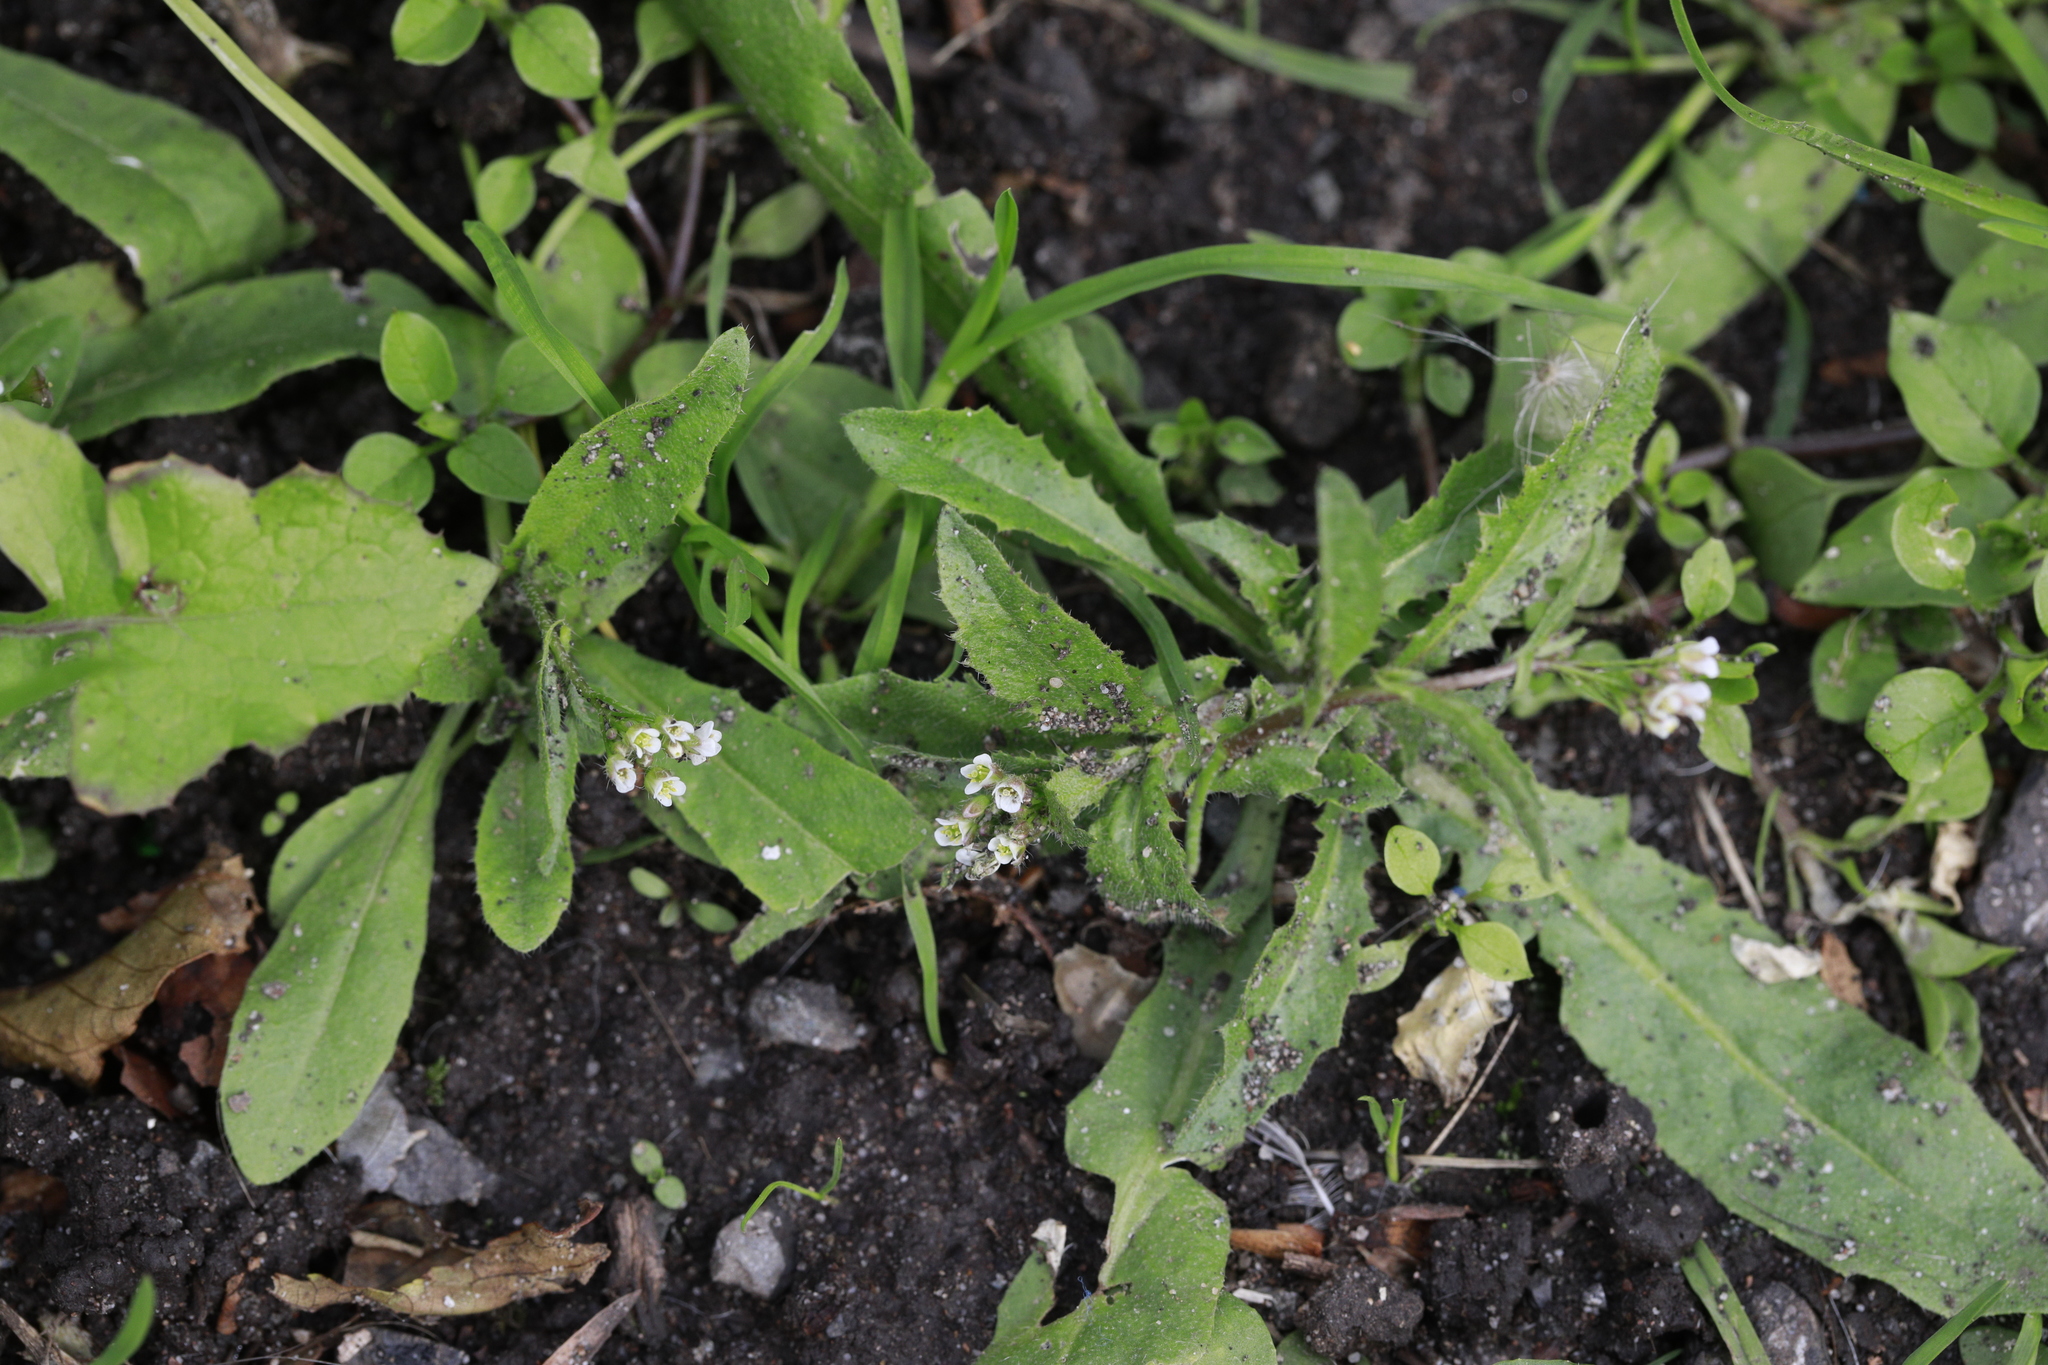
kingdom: Plantae
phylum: Tracheophyta
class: Magnoliopsida
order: Brassicales
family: Brassicaceae
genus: Capsella
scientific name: Capsella bursa-pastoris
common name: Shepherd's purse
